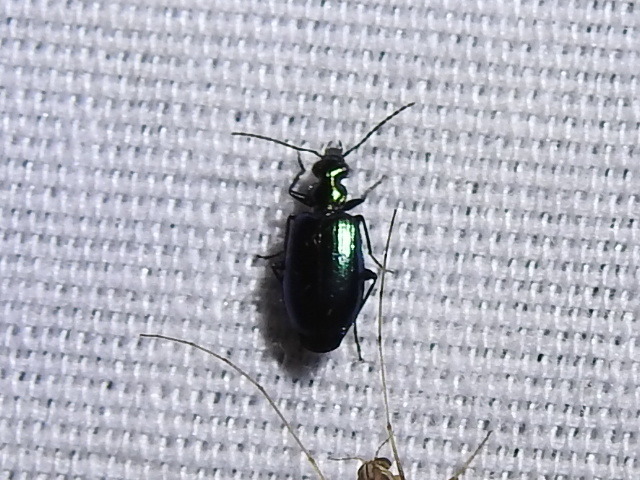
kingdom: Animalia
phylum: Arthropoda
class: Insecta
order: Coleoptera
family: Carabidae
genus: Lebia
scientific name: Lebia viridis
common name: Flower lebia beetle
